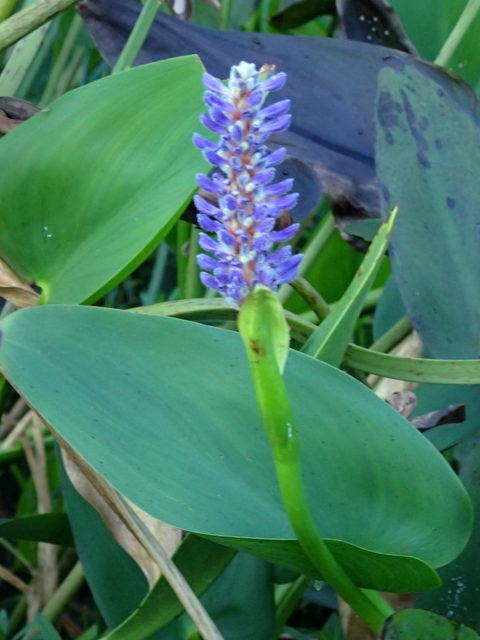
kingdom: Plantae
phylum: Tracheophyta
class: Liliopsida
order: Commelinales
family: Pontederiaceae
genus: Pontederia
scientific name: Pontederia cordata
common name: Pickerelweed
